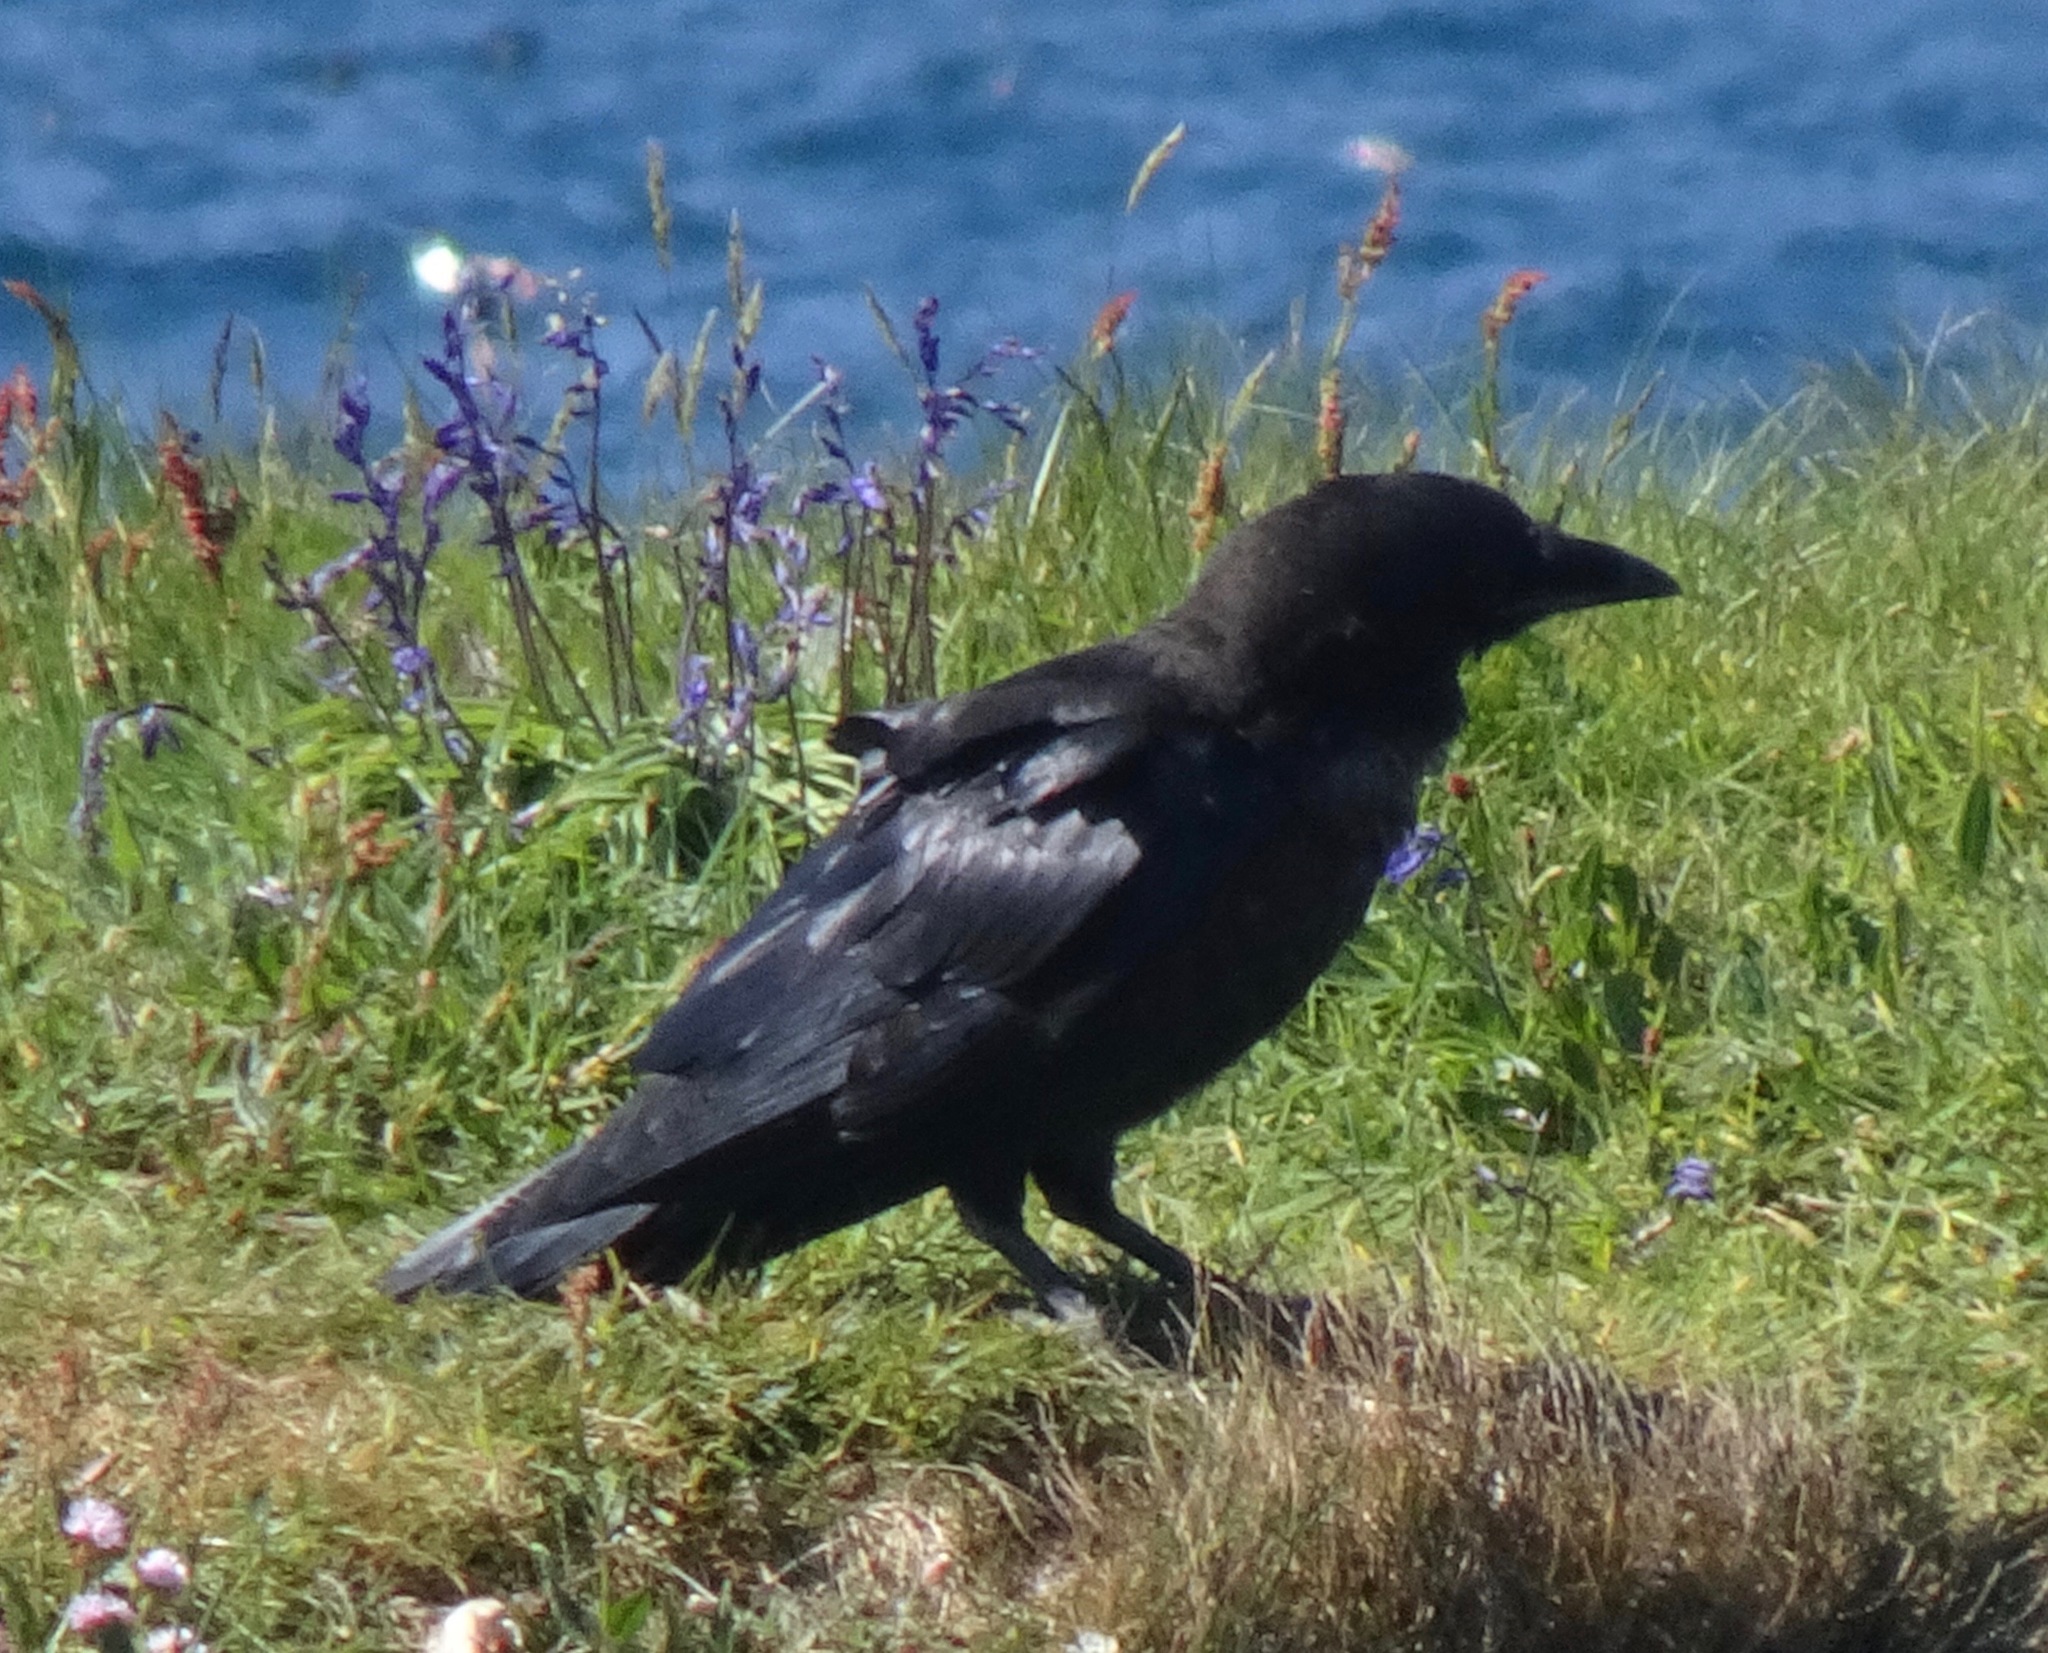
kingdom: Animalia
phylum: Chordata
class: Aves
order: Passeriformes
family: Corvidae
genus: Corvus
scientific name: Corvus corax
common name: Common raven
